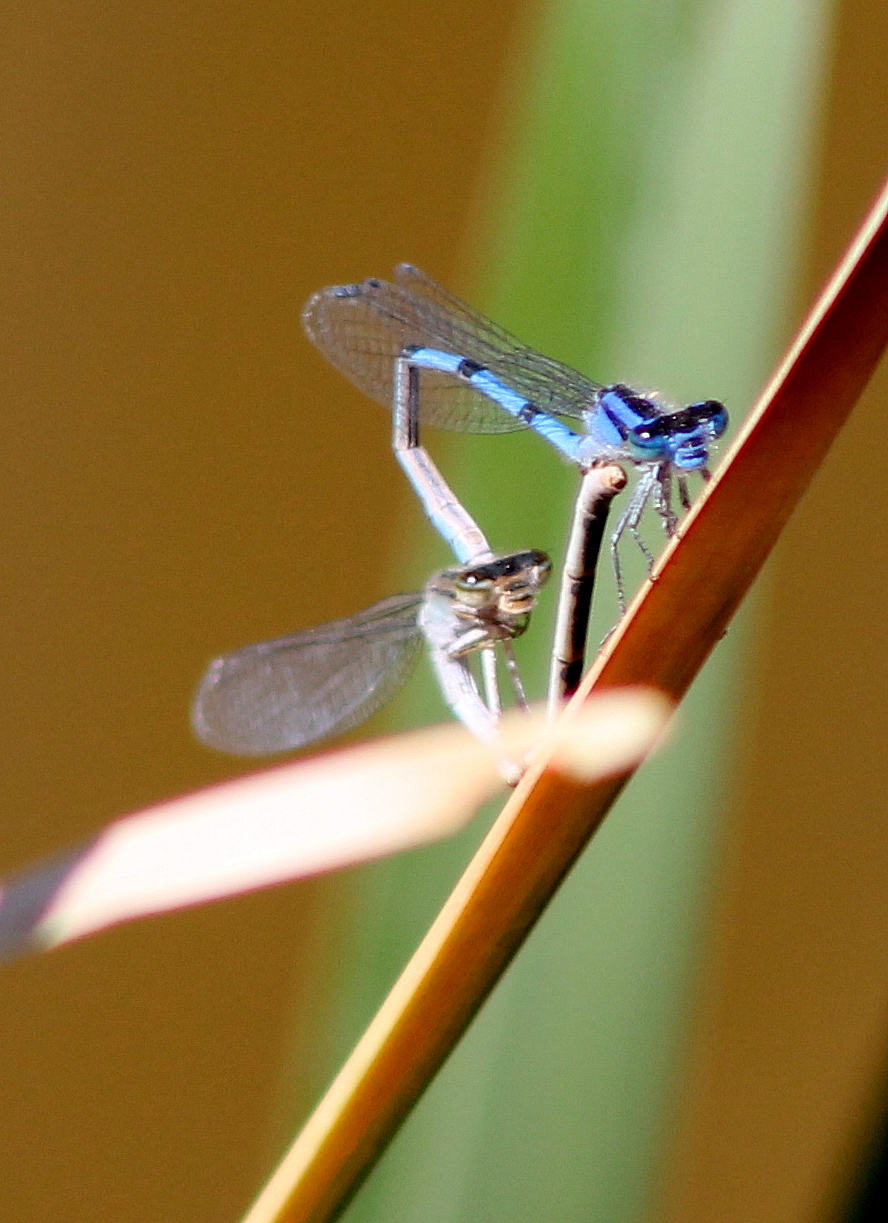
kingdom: Animalia
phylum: Arthropoda
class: Insecta
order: Odonata
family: Coenagrionidae
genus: Enallagma
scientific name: Enallagma civile
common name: Damselfly
